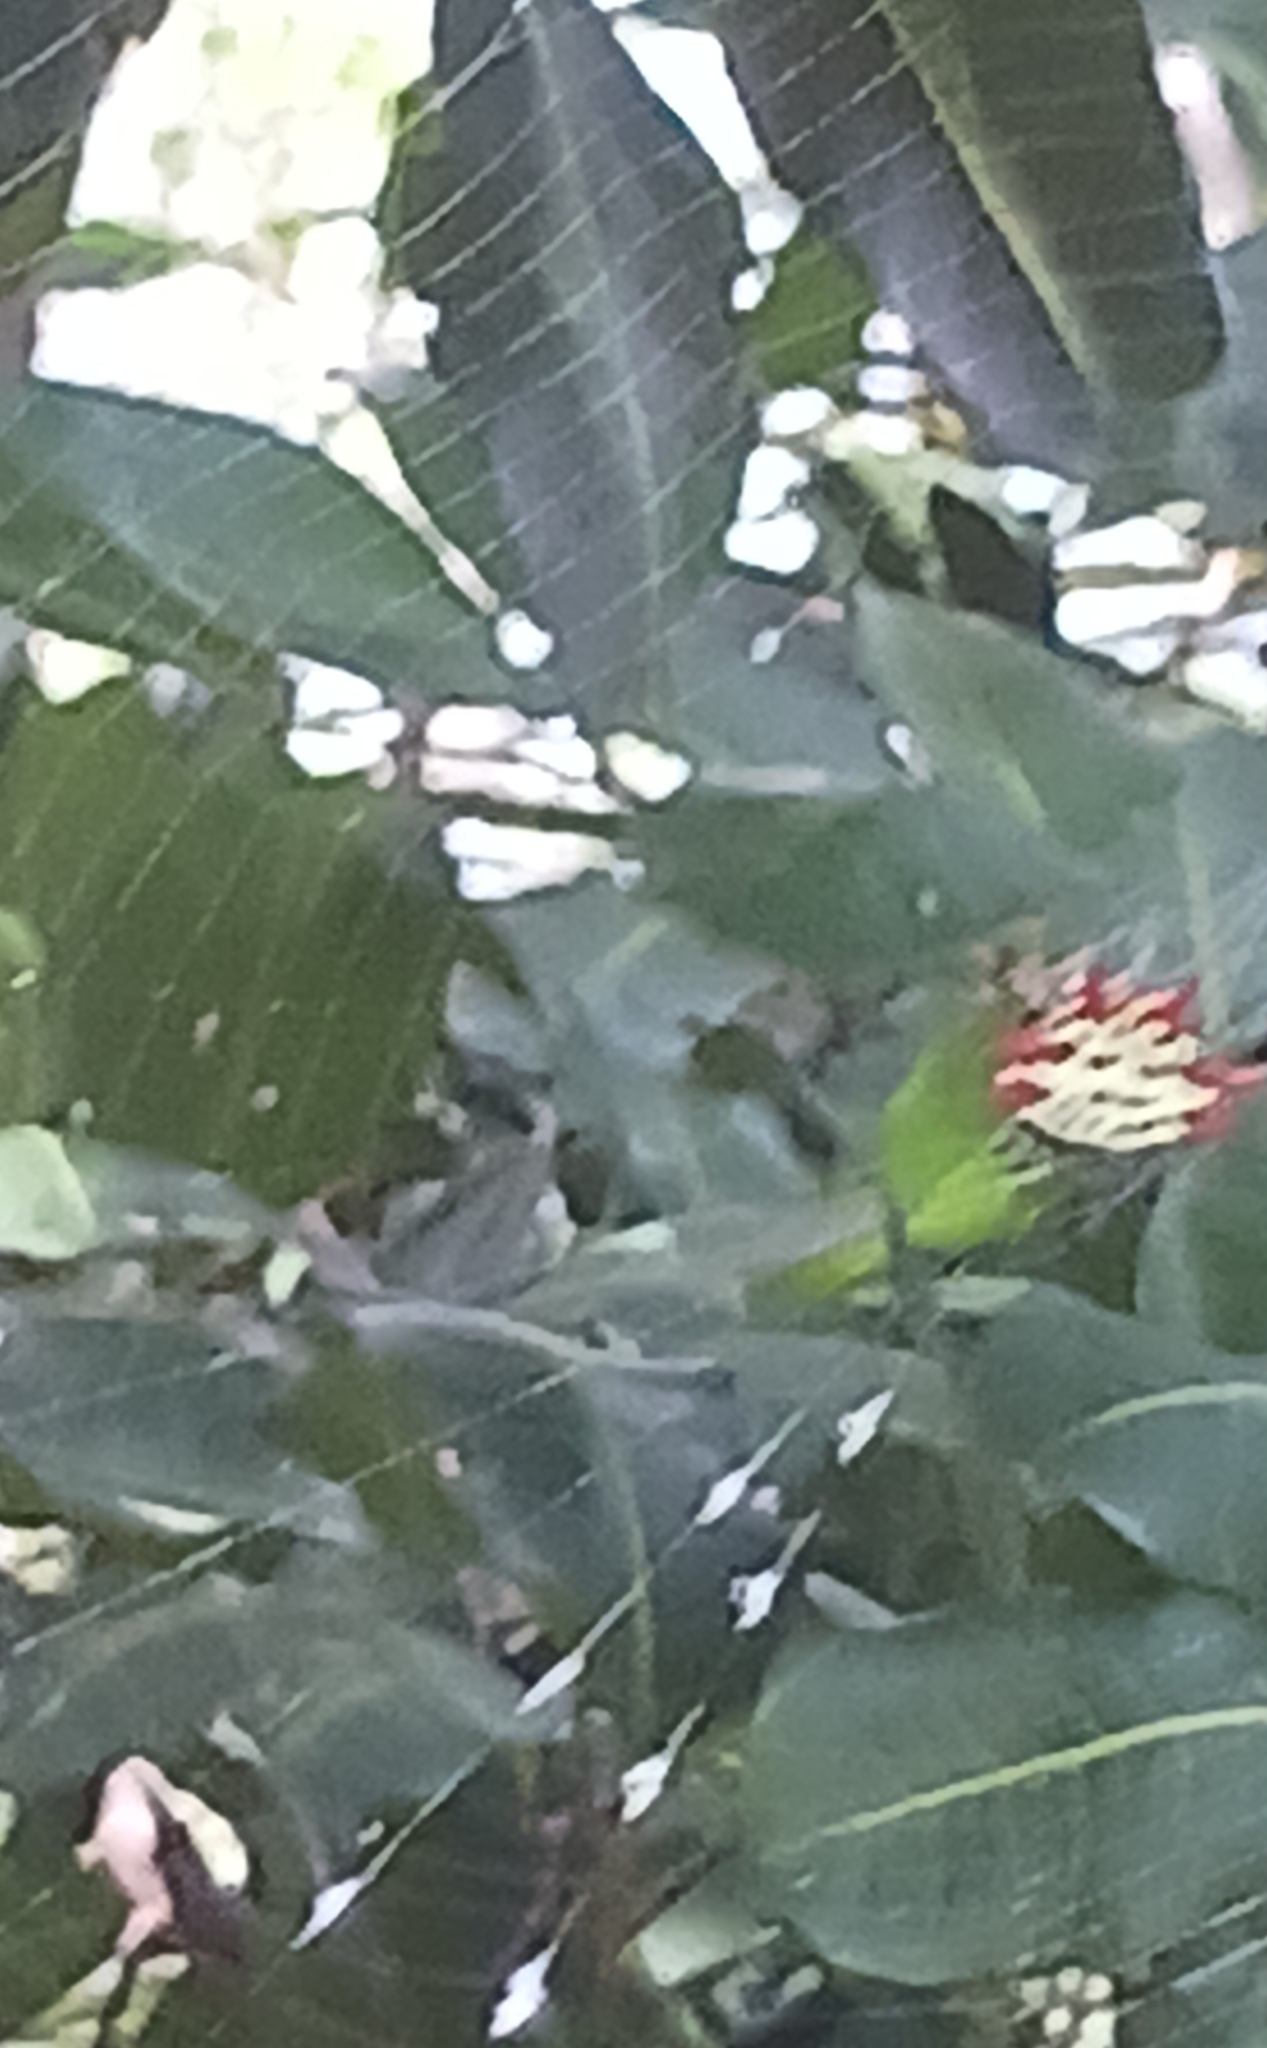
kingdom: Animalia
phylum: Arthropoda
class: Arachnida
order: Araneae
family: Araneidae
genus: Gasteracantha
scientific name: Gasteracantha cancriformis
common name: Orb weavers
